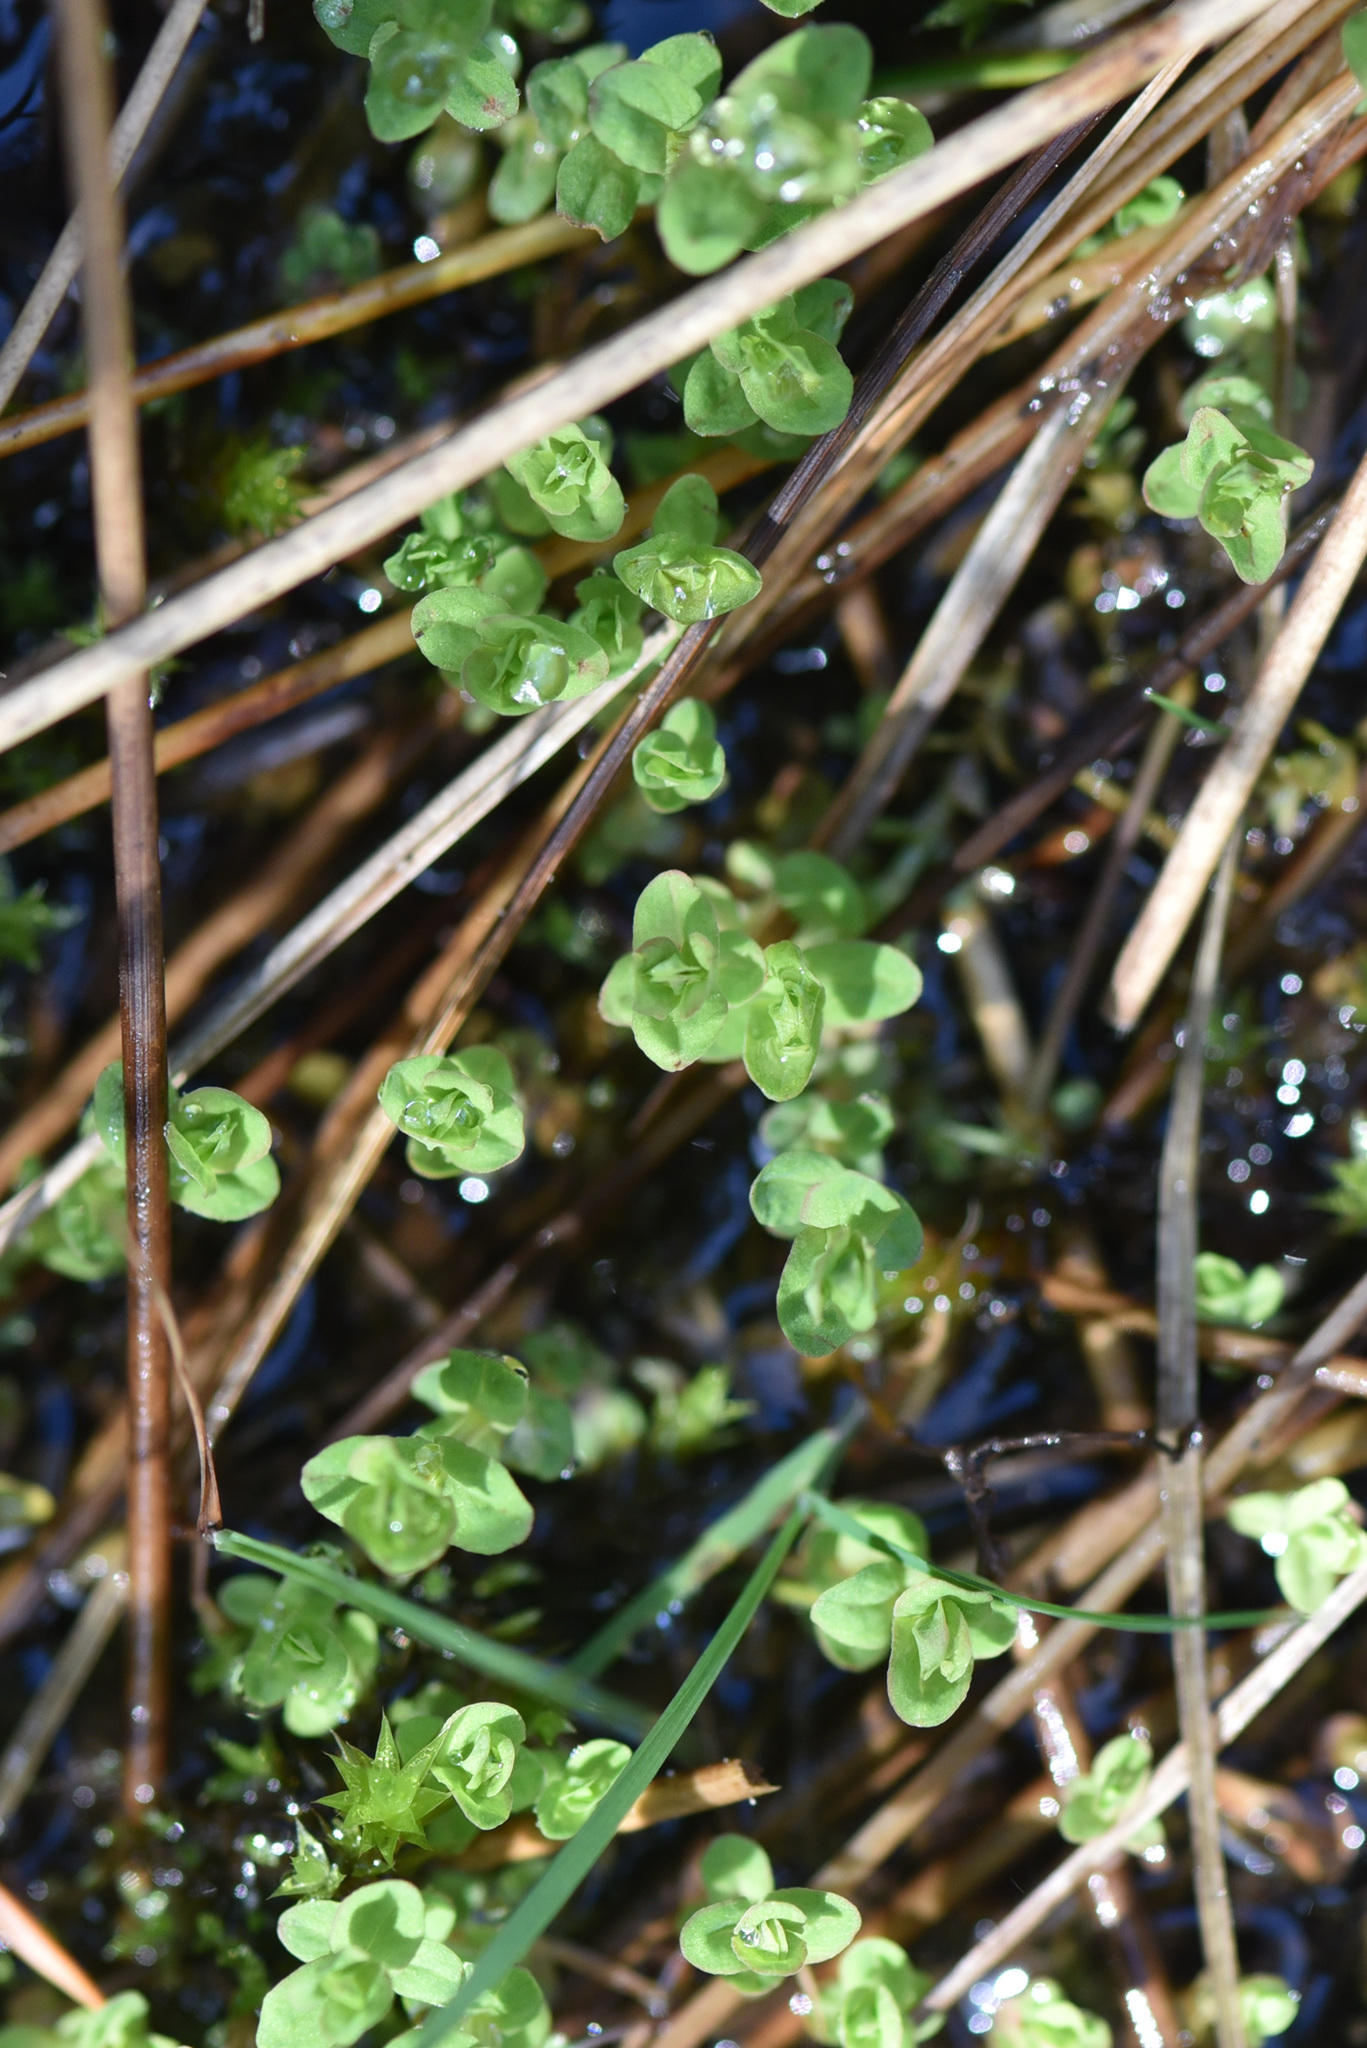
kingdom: Plantae
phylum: Tracheophyta
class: Magnoliopsida
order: Malpighiales
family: Hypericaceae
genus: Hypericum
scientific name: Hypericum anagalloides
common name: Bog st. john's-wort
